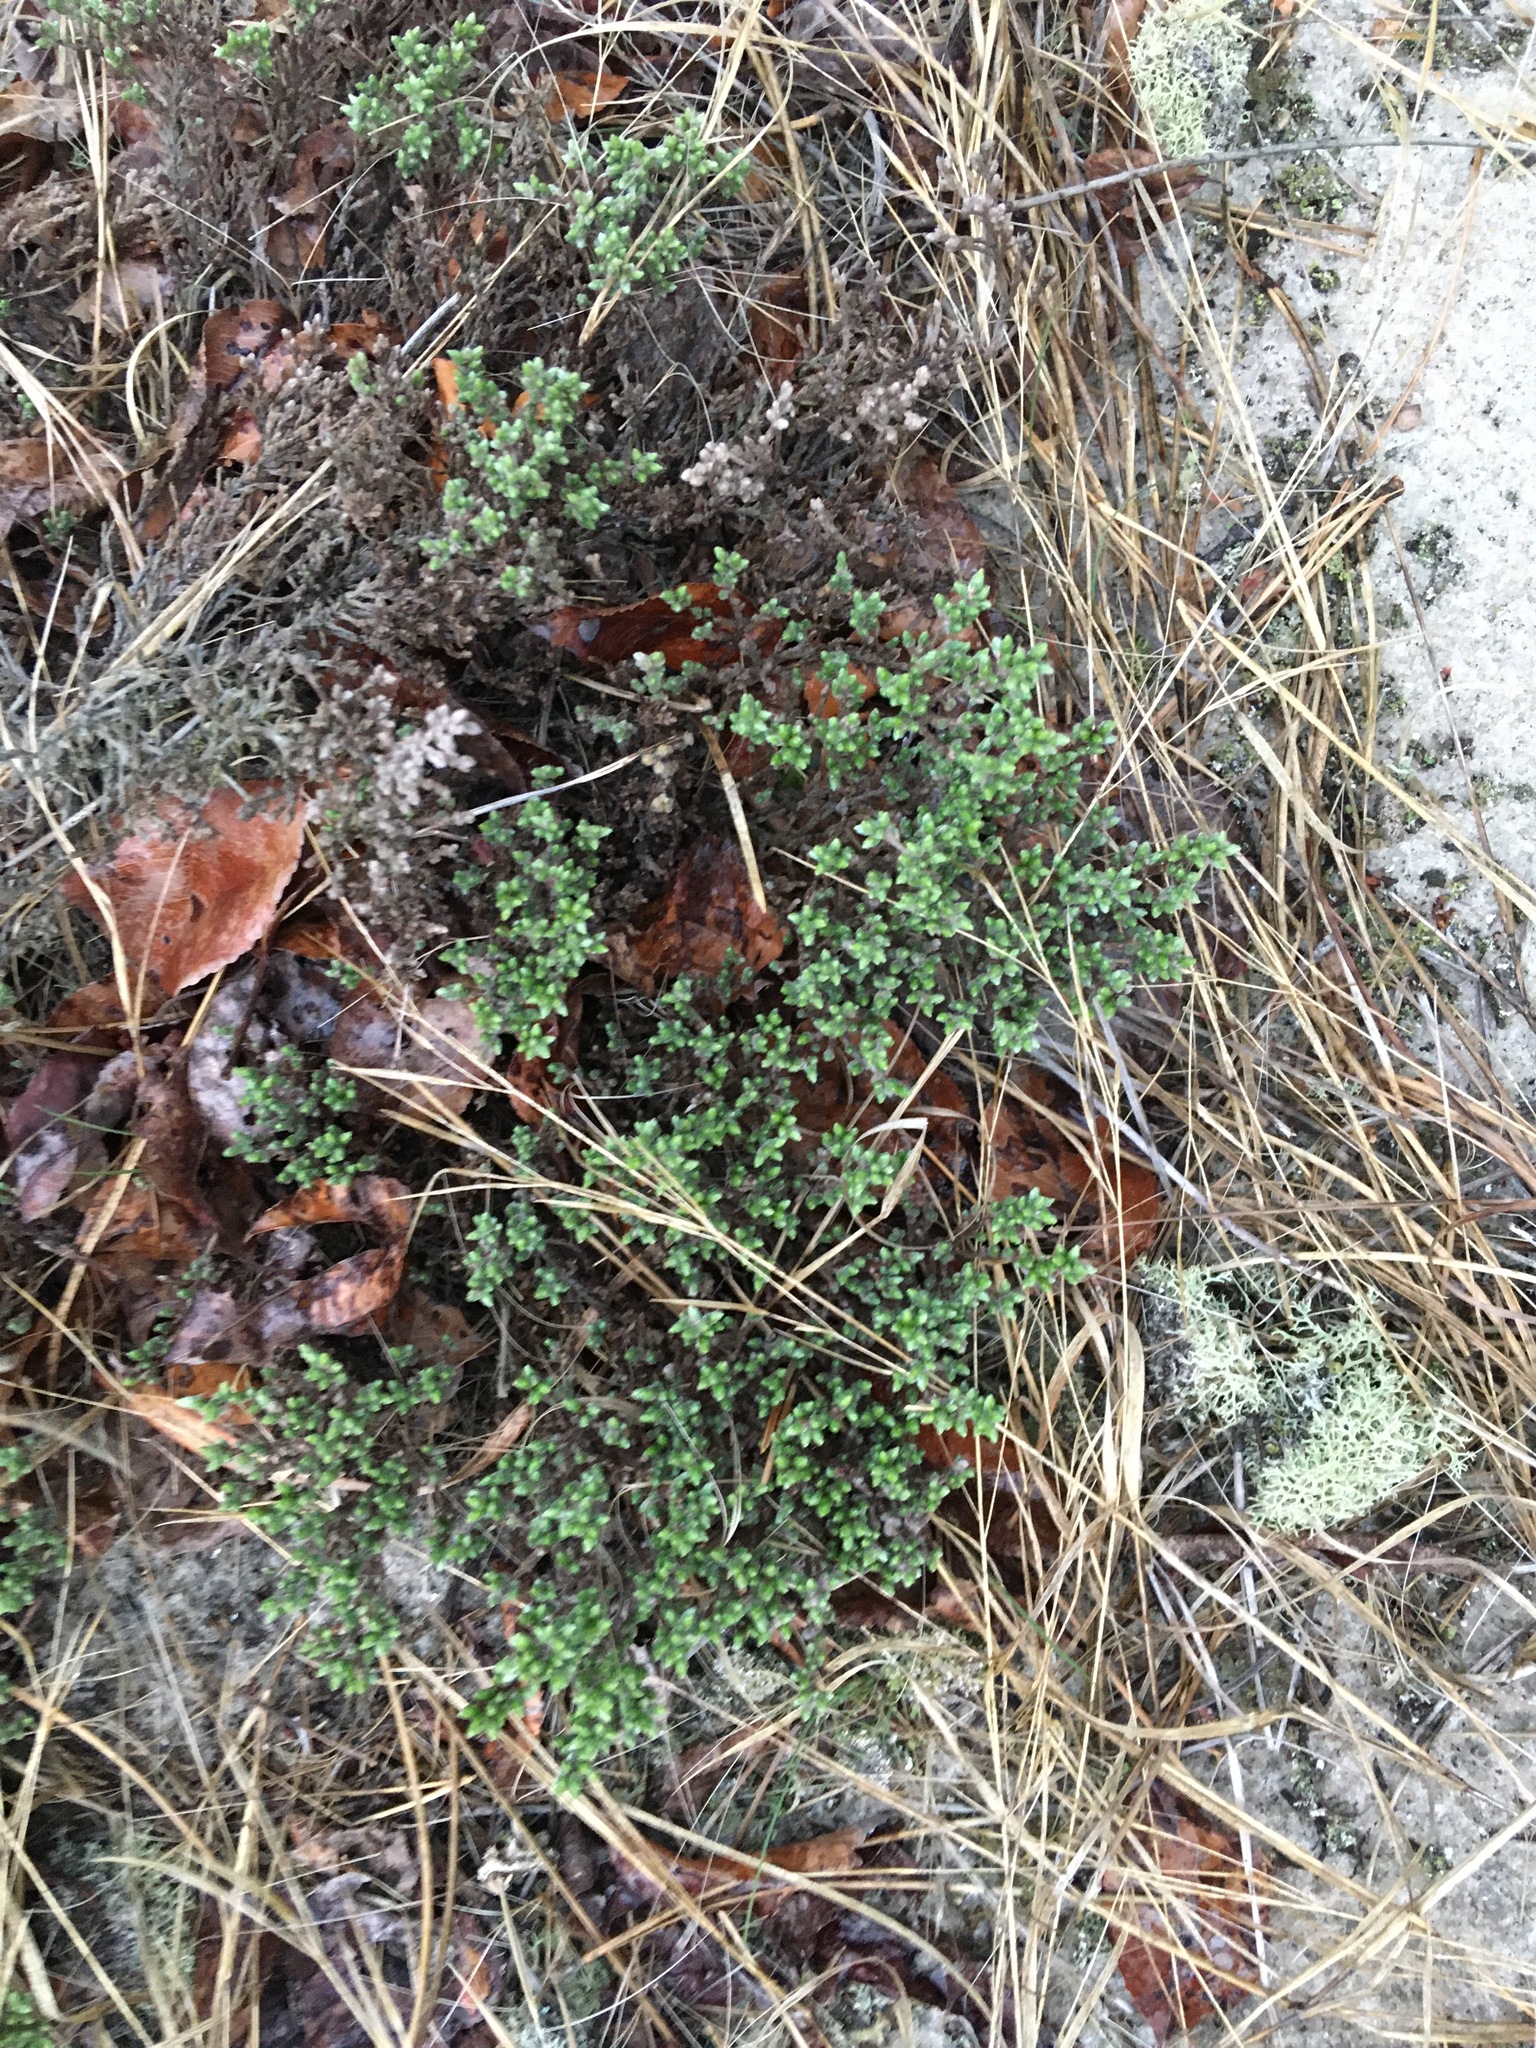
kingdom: Plantae
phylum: Tracheophyta
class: Magnoliopsida
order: Malvales
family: Cistaceae
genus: Hudsonia
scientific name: Hudsonia tomentosa
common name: Beach-heath
